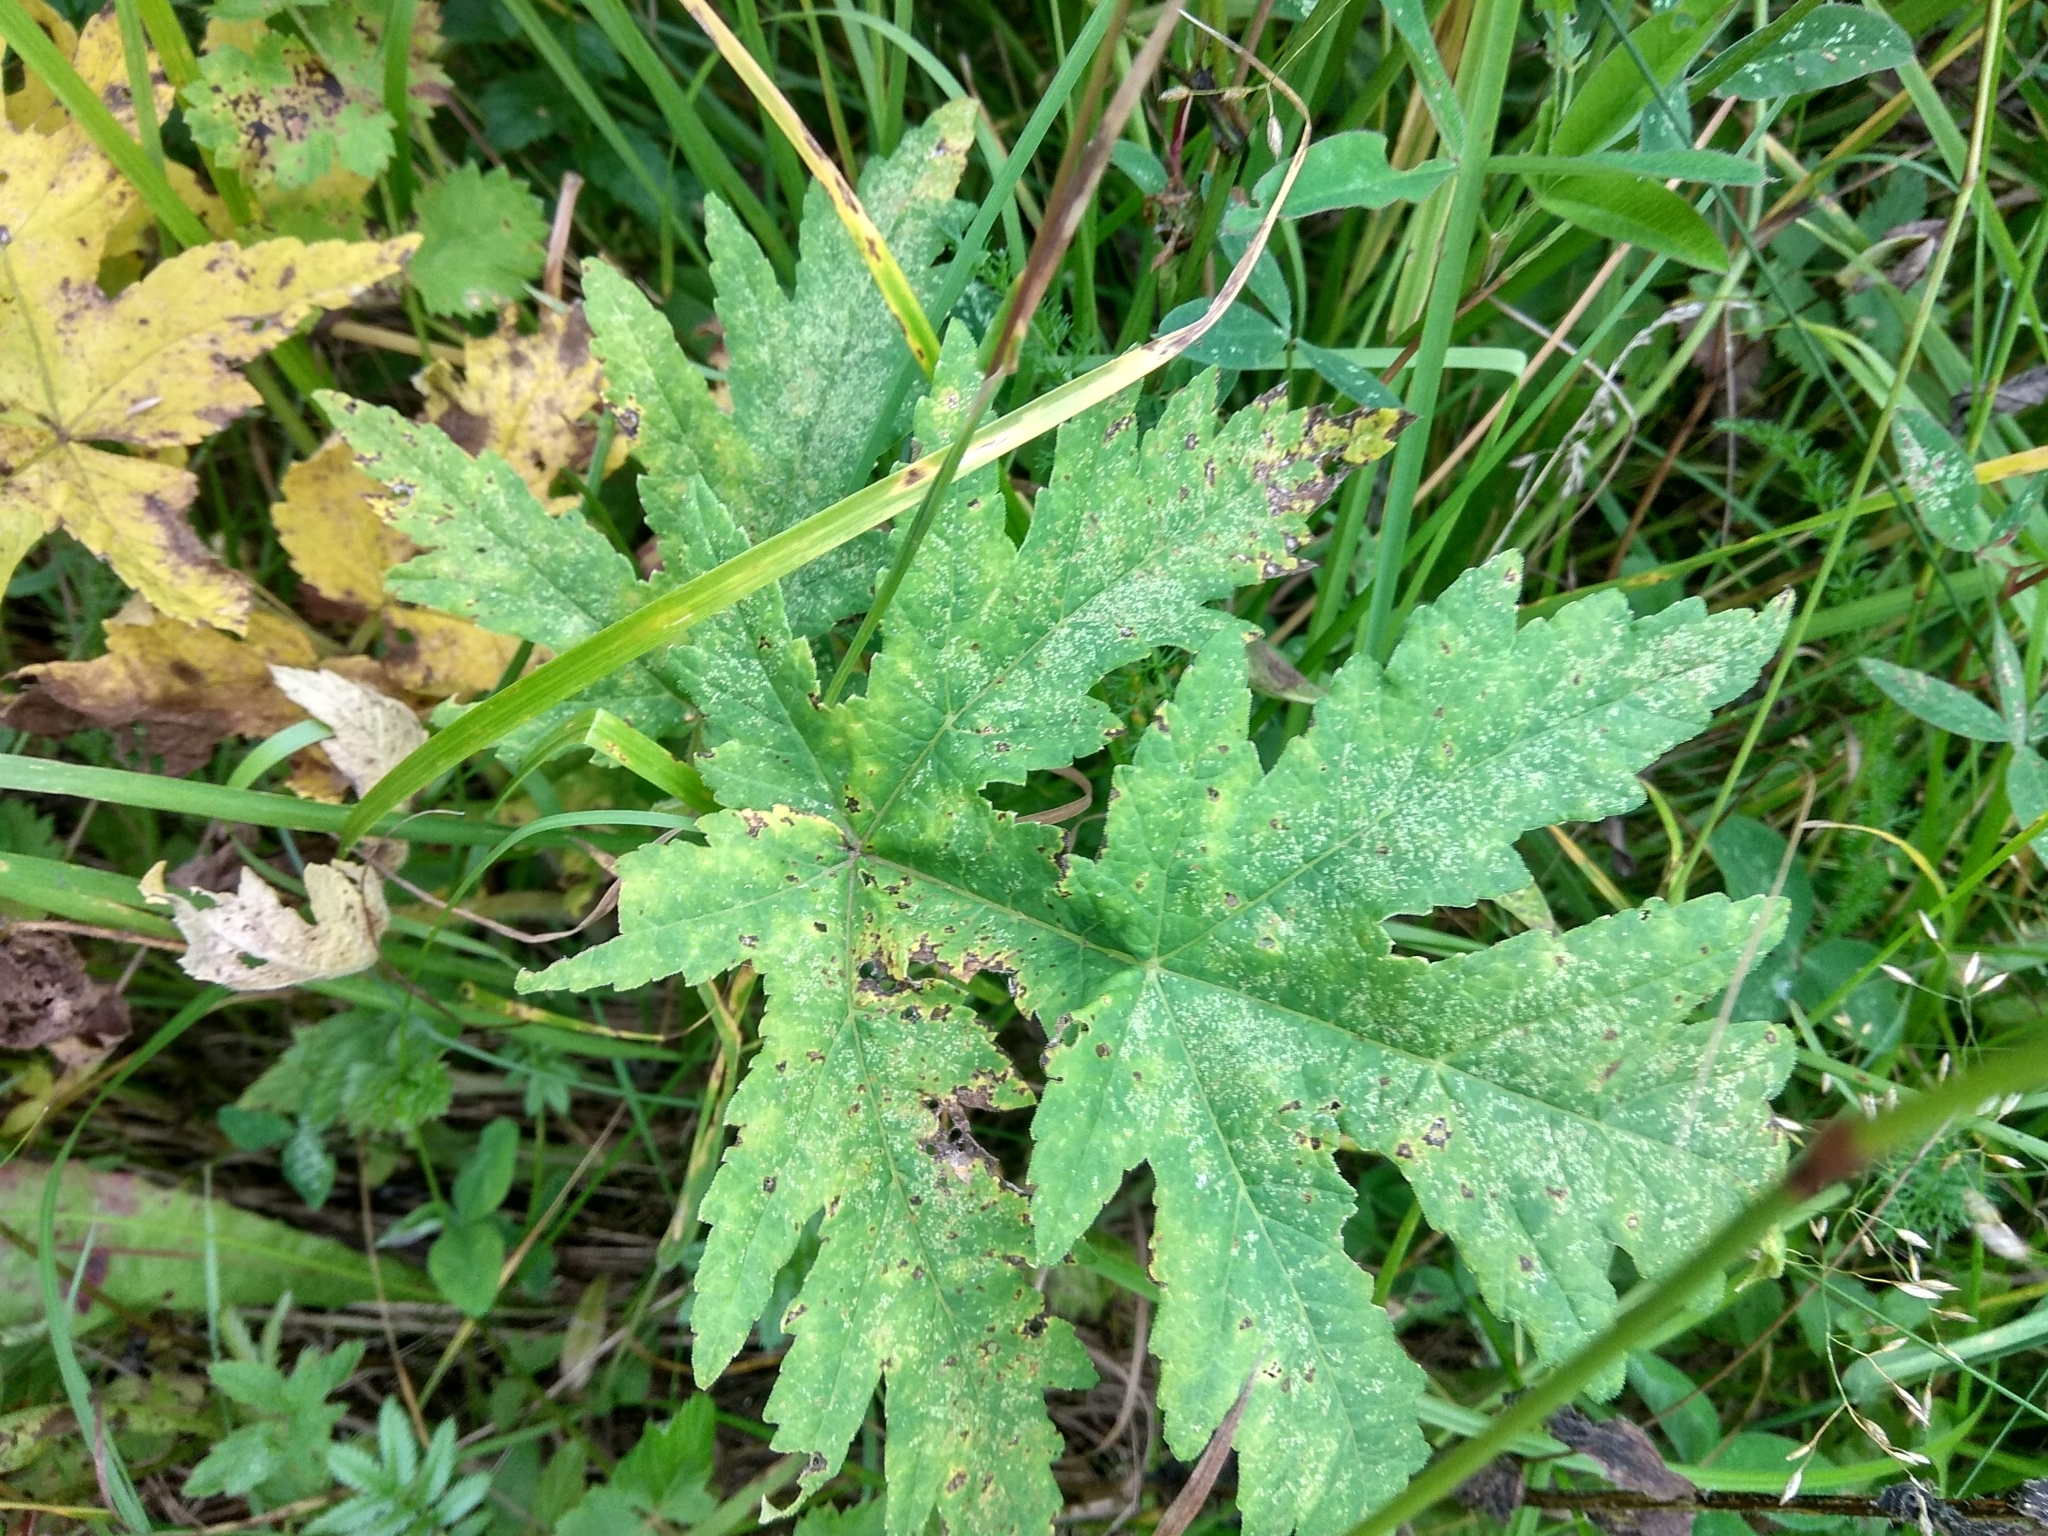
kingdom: Plantae
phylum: Tracheophyta
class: Magnoliopsida
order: Apiales
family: Apiaceae
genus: Heracleum
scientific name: Heracleum sphondylium
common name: Hogweed
